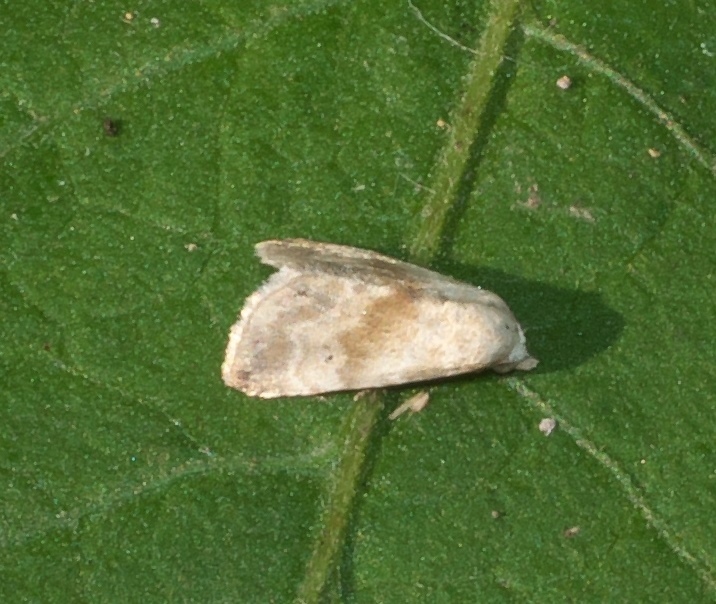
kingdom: Animalia
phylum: Arthropoda
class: Insecta
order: Lepidoptera
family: Noctuidae
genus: Eublemma
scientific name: Eublemma minima
